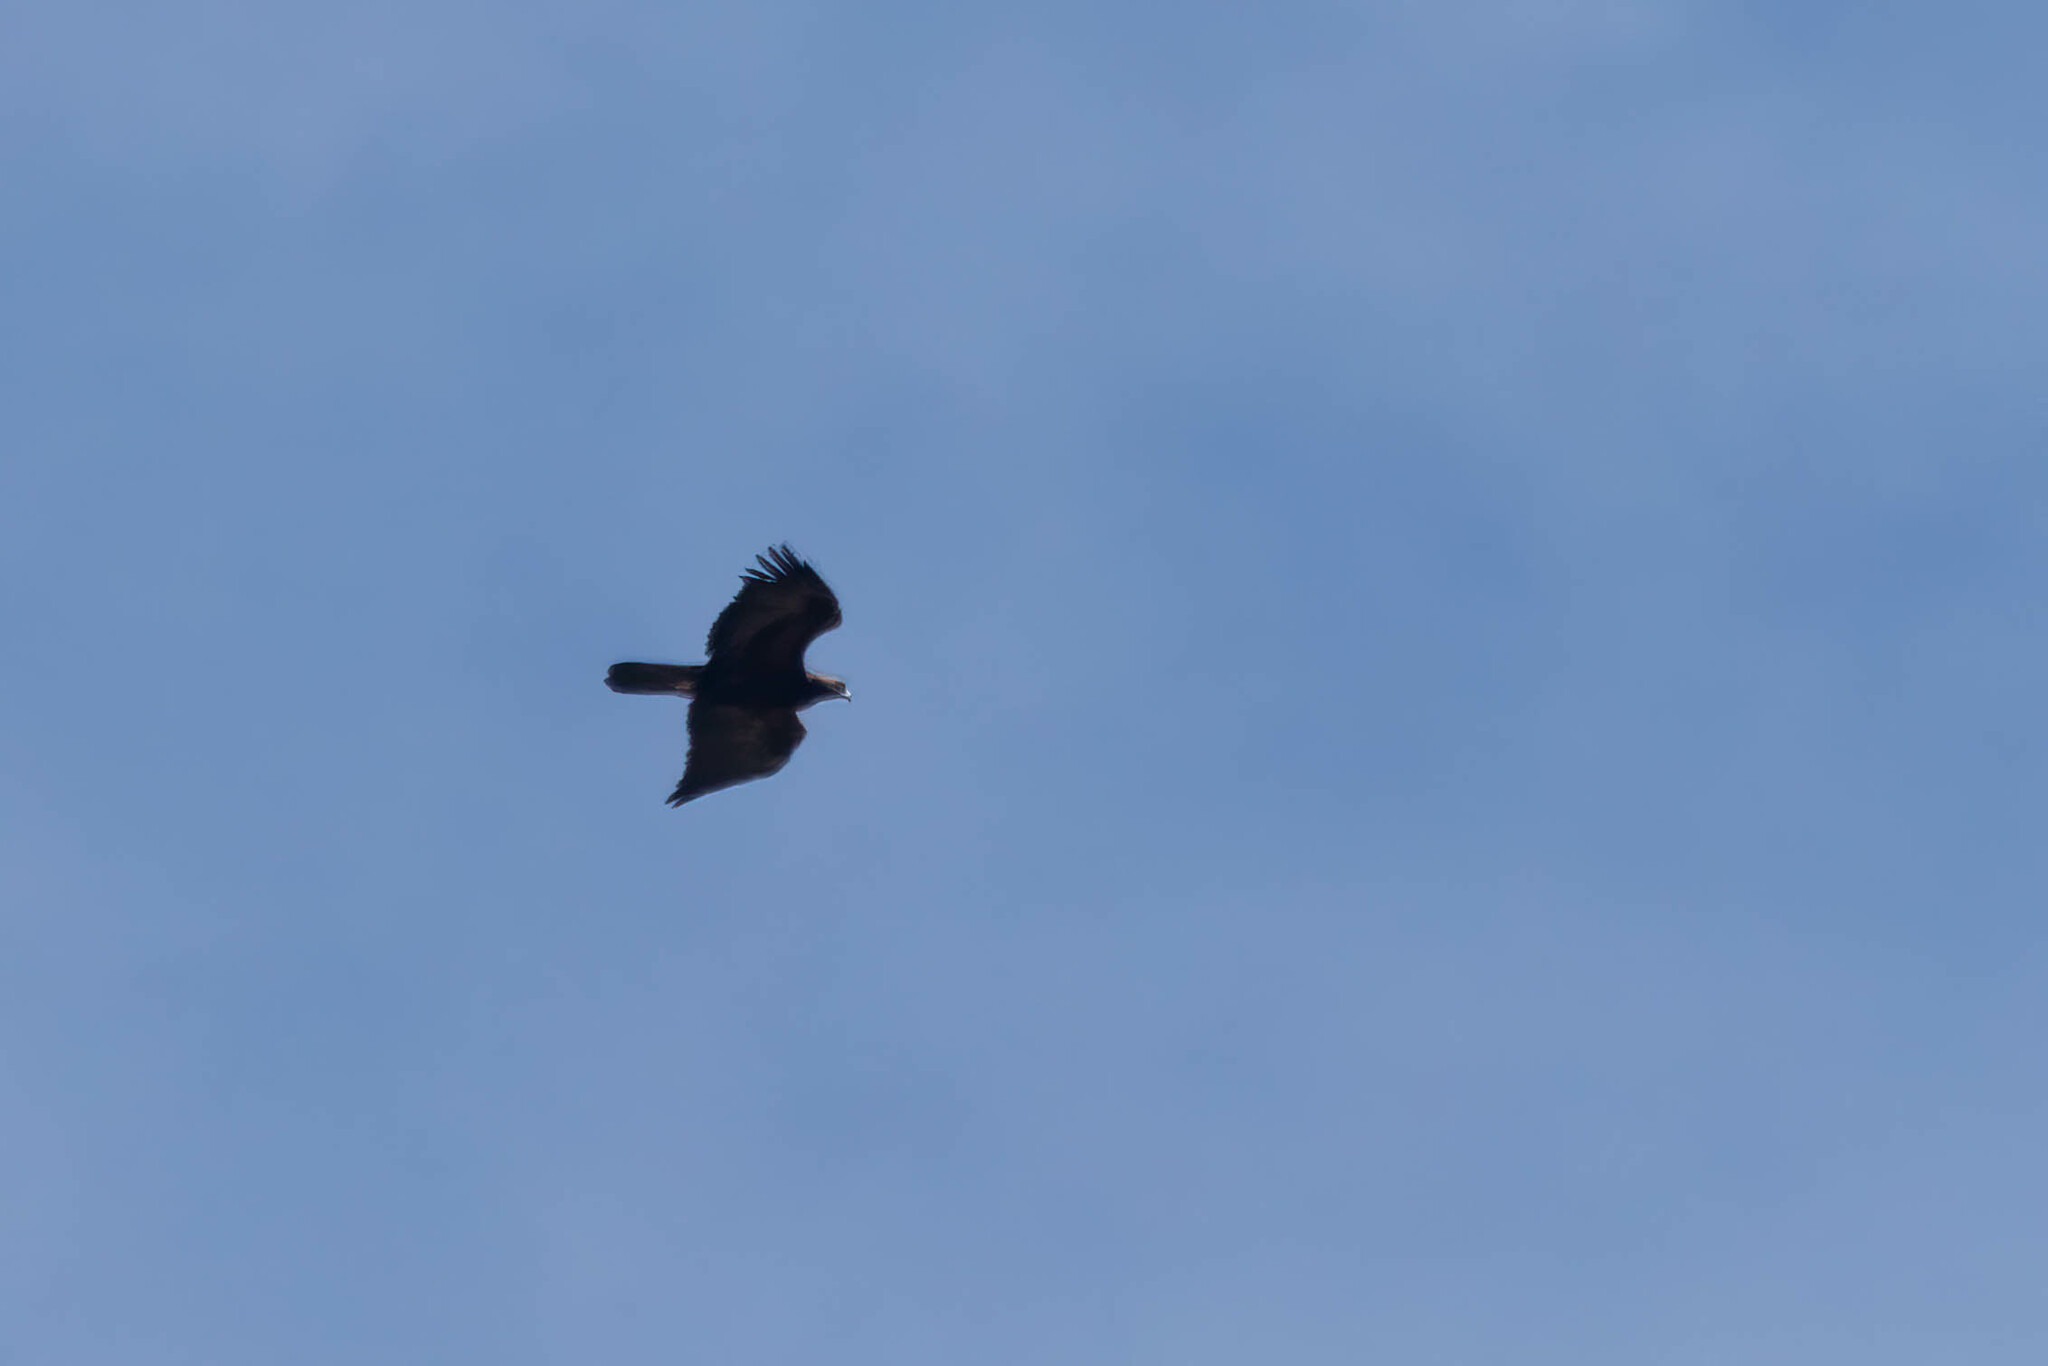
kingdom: Animalia
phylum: Chordata
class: Aves
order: Accipitriformes
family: Accipitridae
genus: Aquila
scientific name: Aquila chrysaetos
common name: Golden eagle
